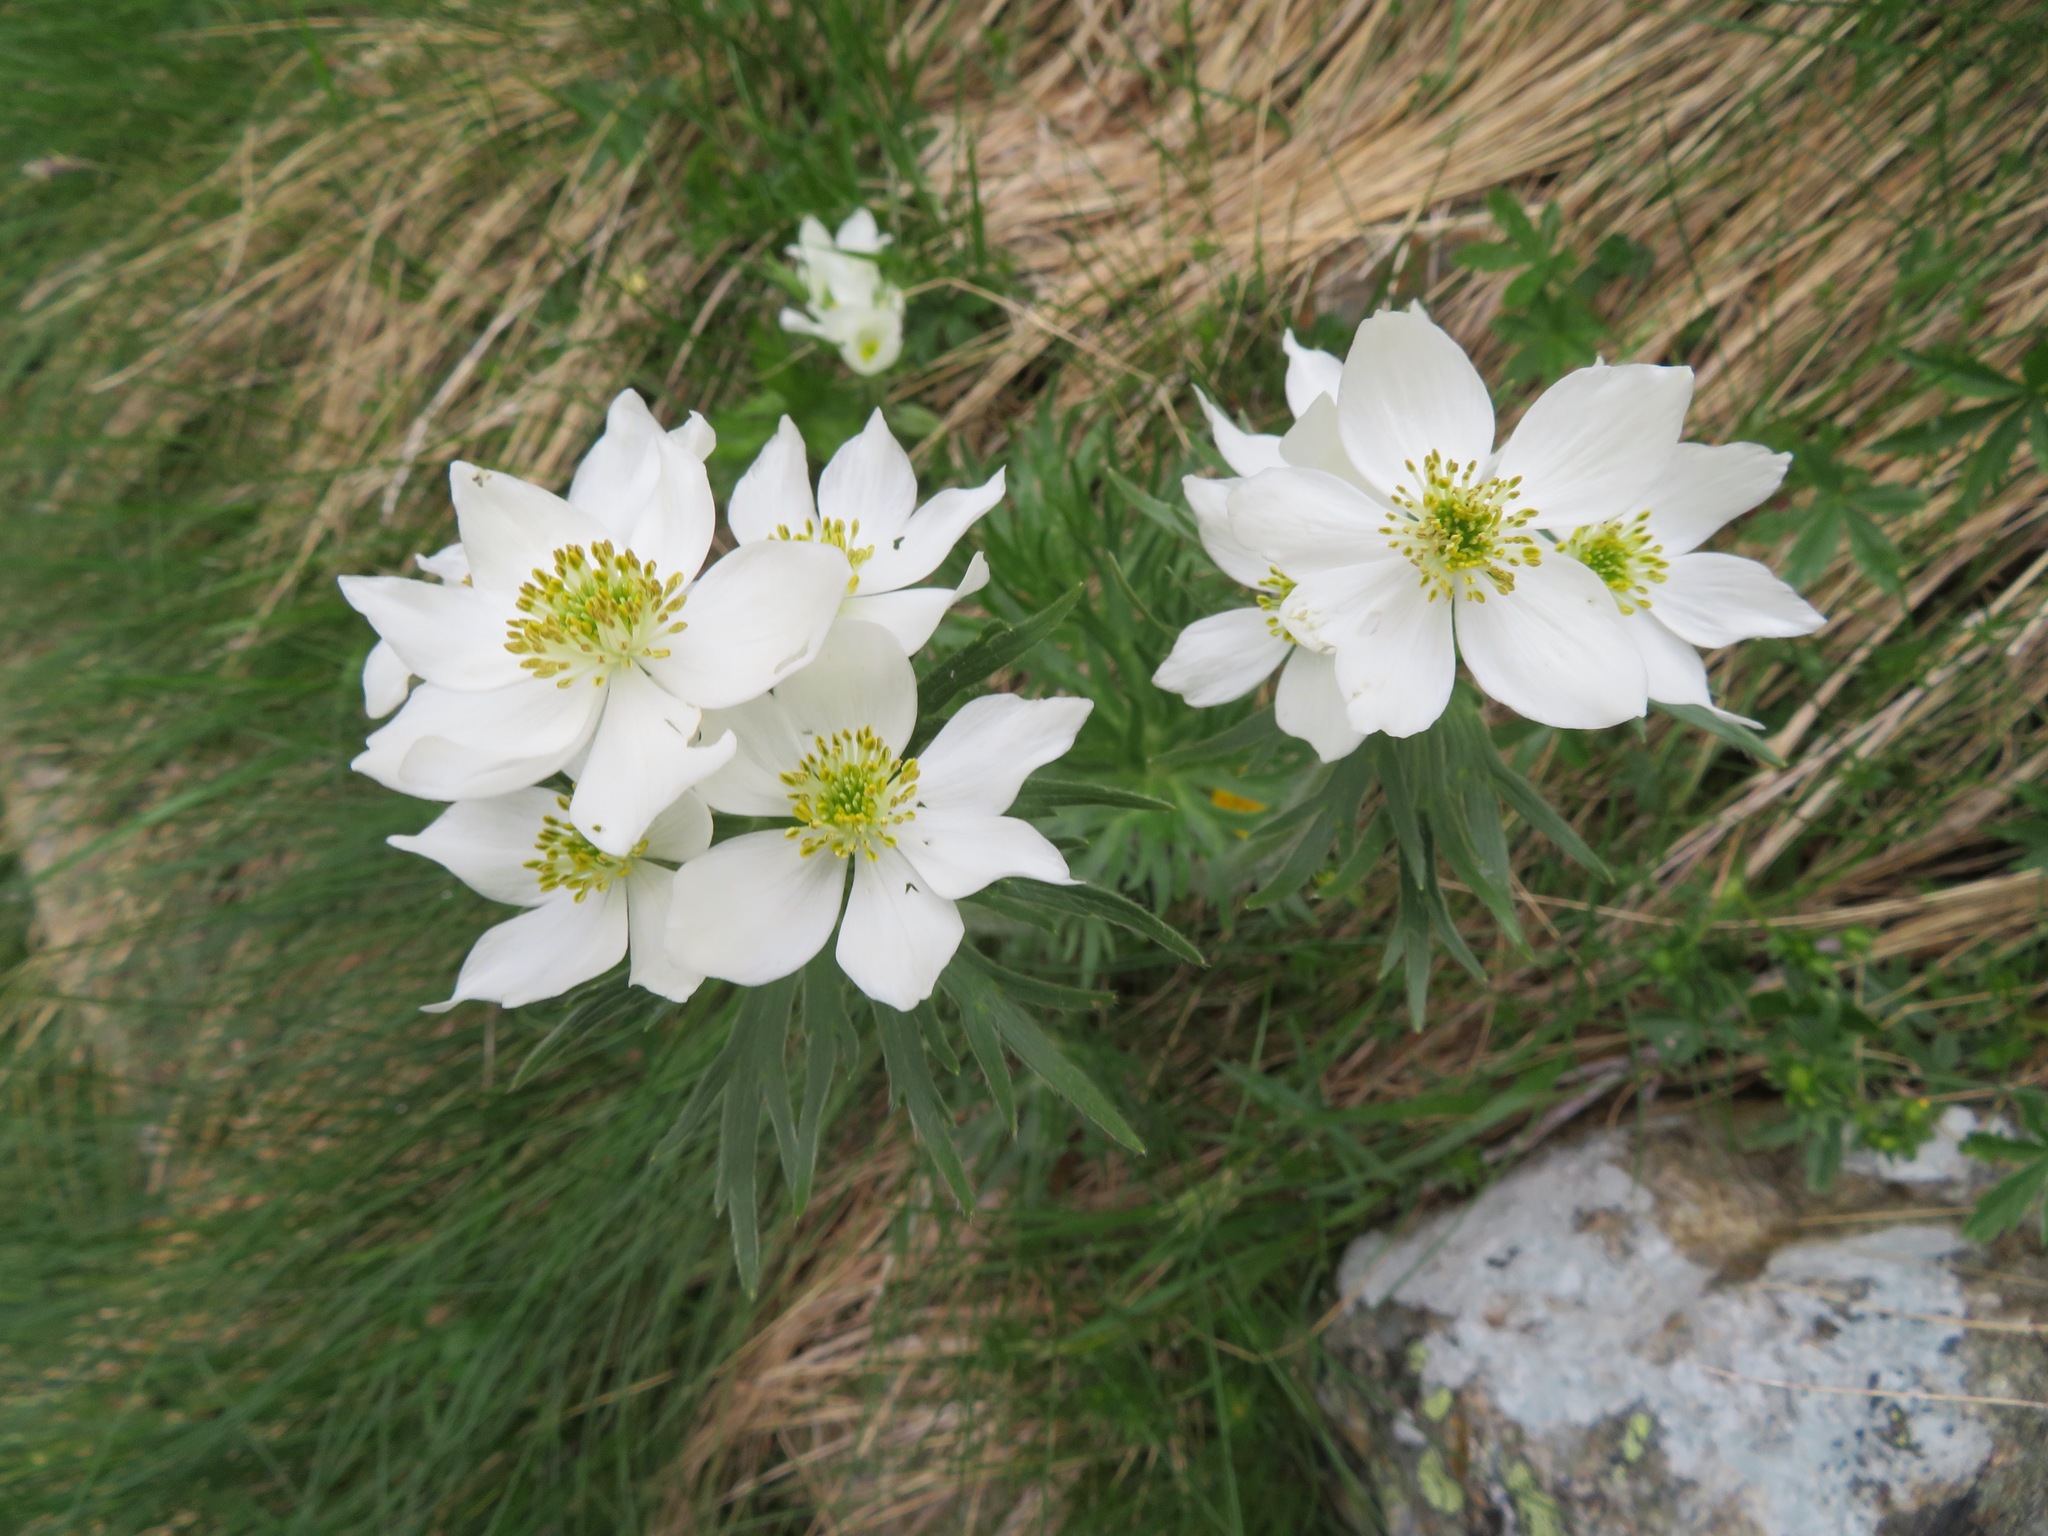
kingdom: Plantae
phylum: Tracheophyta
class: Magnoliopsida
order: Ranunculales
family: Ranunculaceae
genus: Anemonastrum
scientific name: Anemonastrum narcissiflorum
